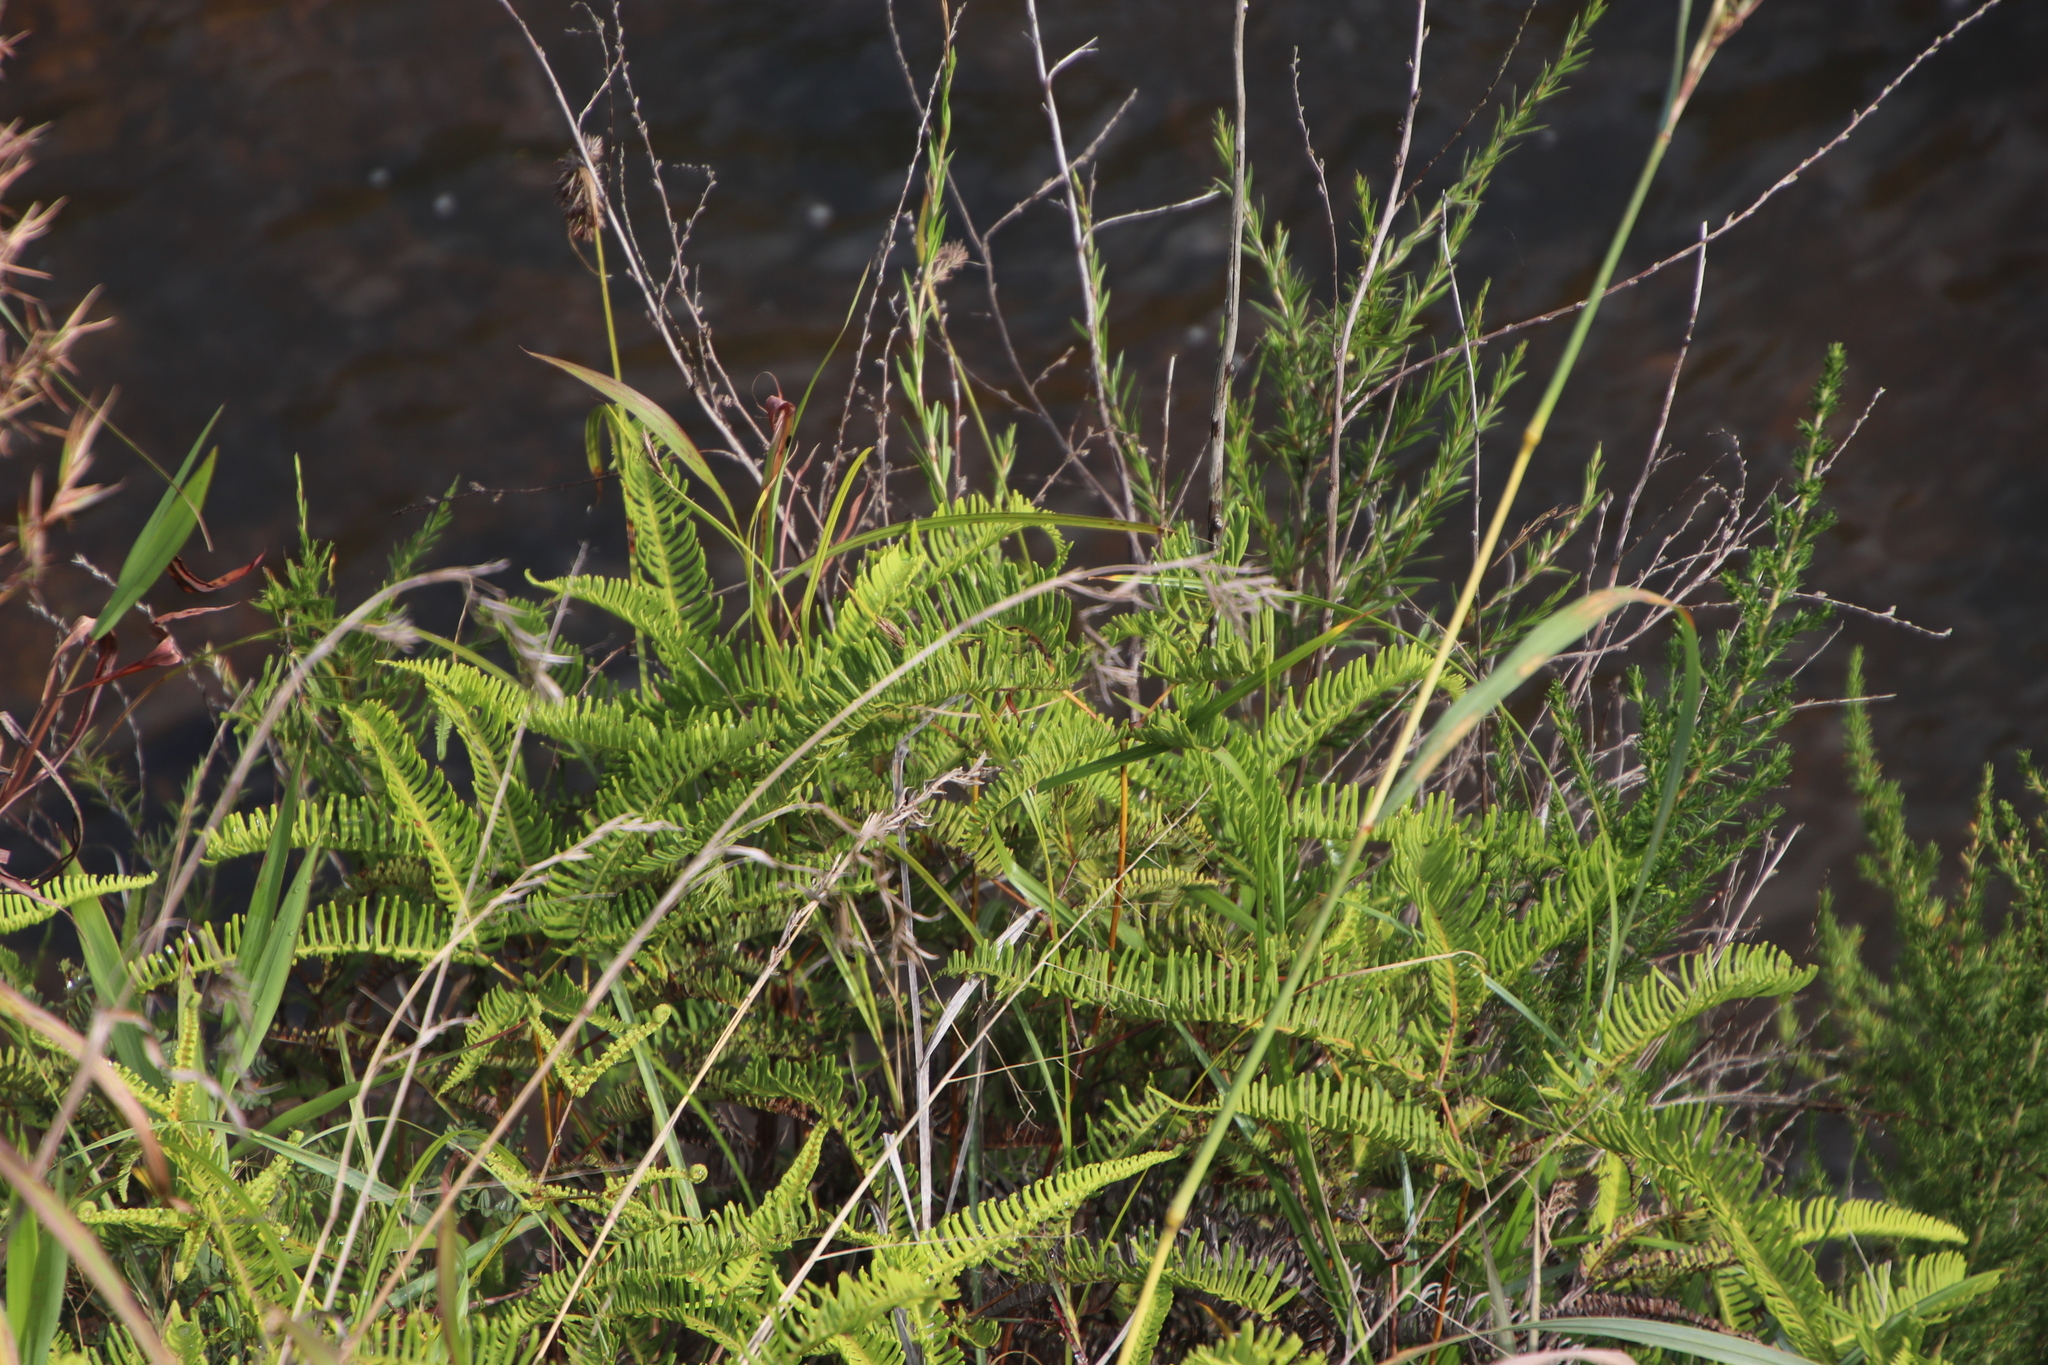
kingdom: Plantae
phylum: Tracheophyta
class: Polypodiopsida
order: Gleicheniales
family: Gleicheniaceae
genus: Dicranopteris
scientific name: Dicranopteris linearis
